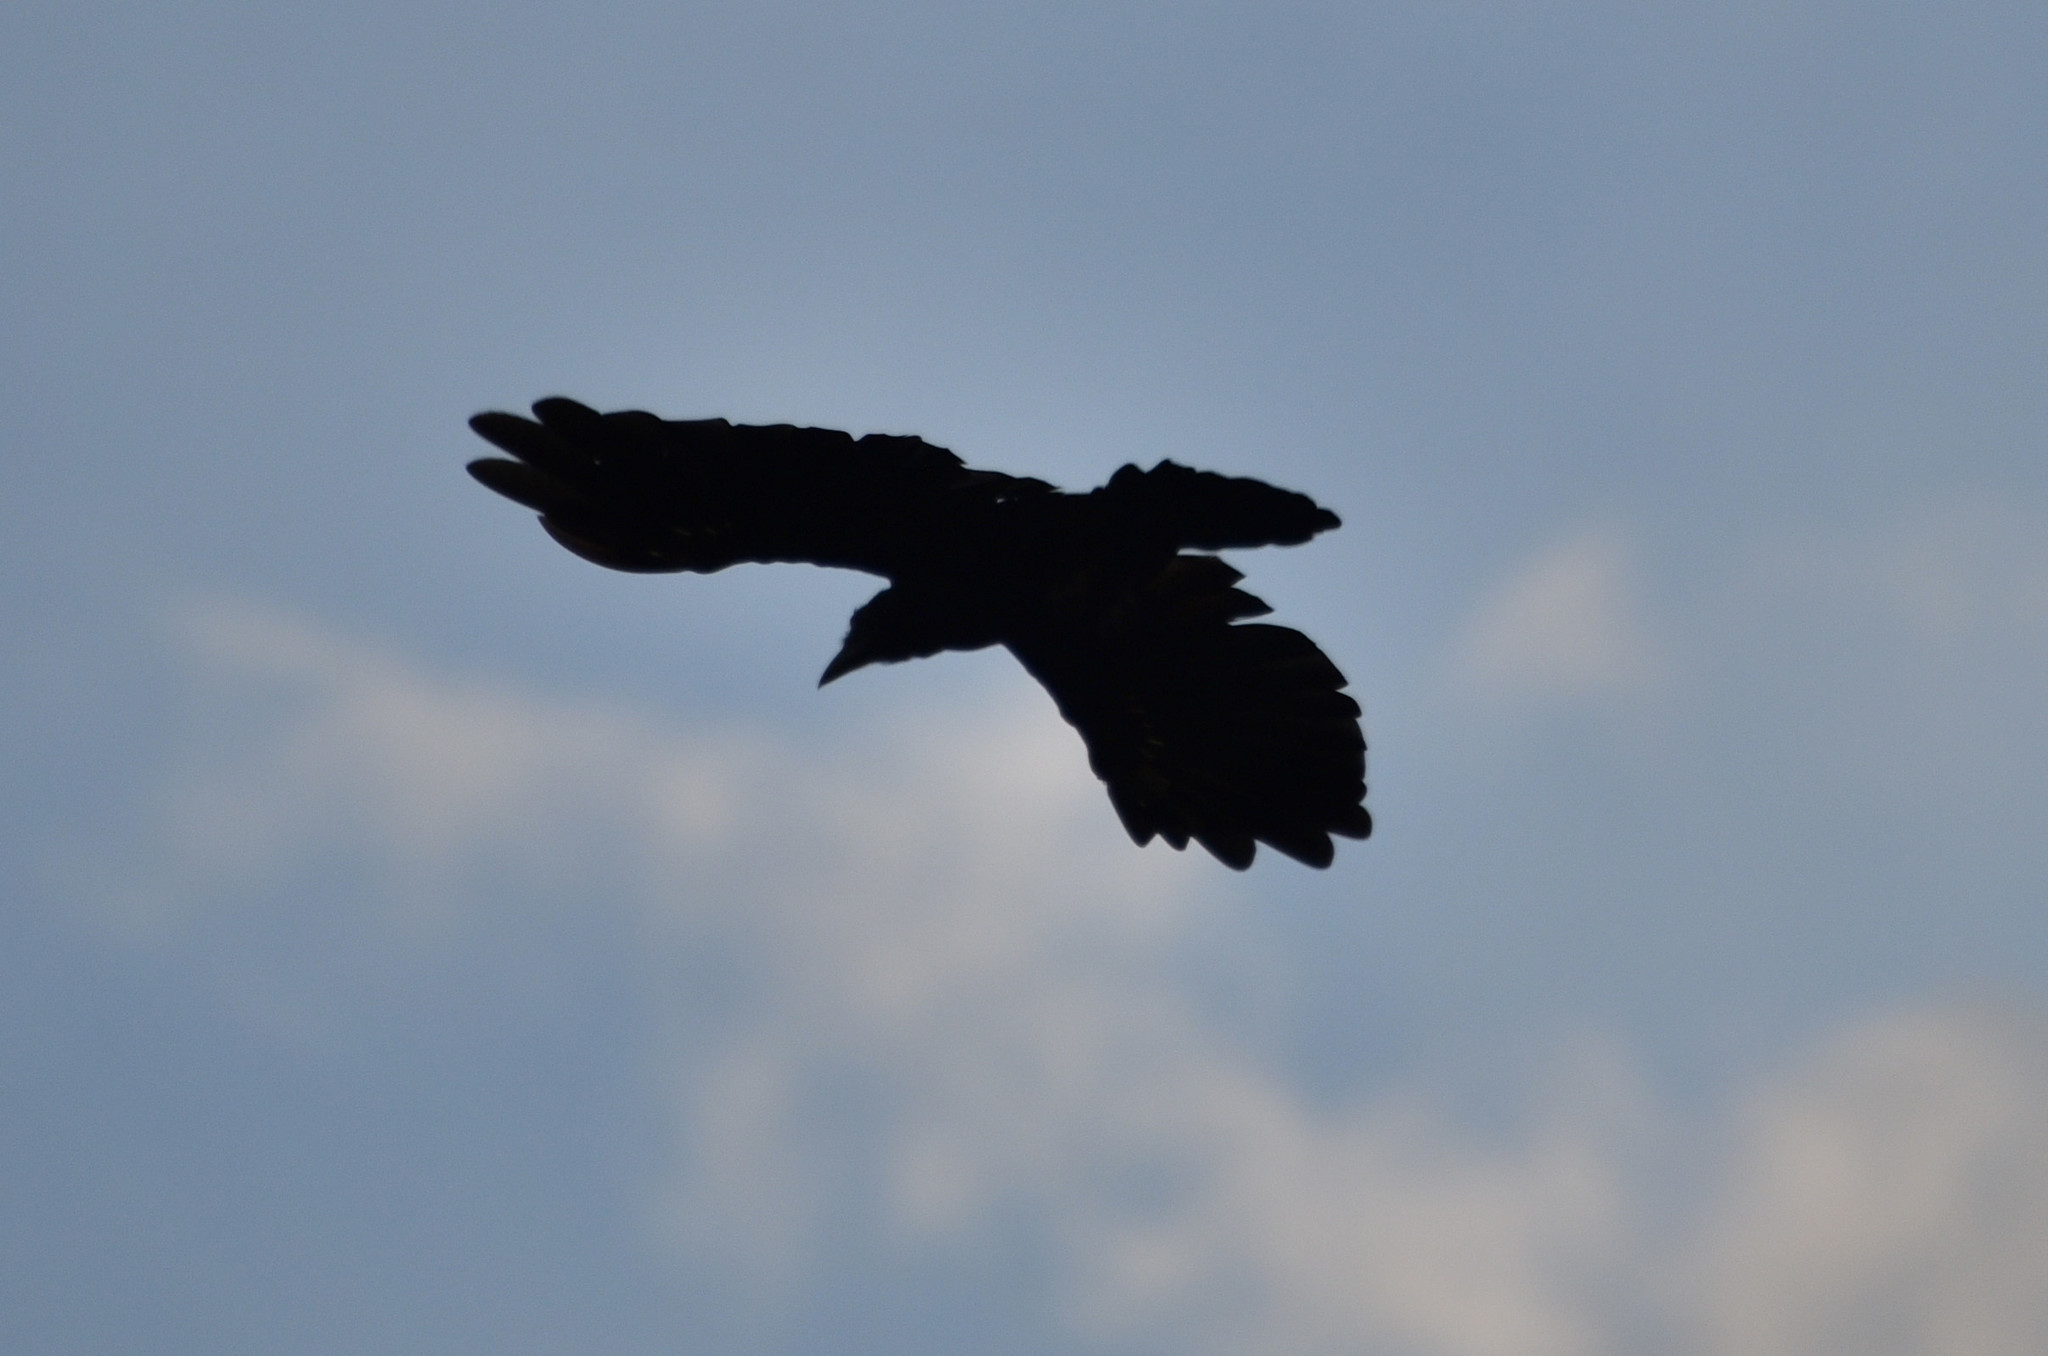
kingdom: Animalia
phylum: Chordata
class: Aves
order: Passeriformes
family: Corvidae
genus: Corvus
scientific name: Corvus brachyrhynchos
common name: American crow
